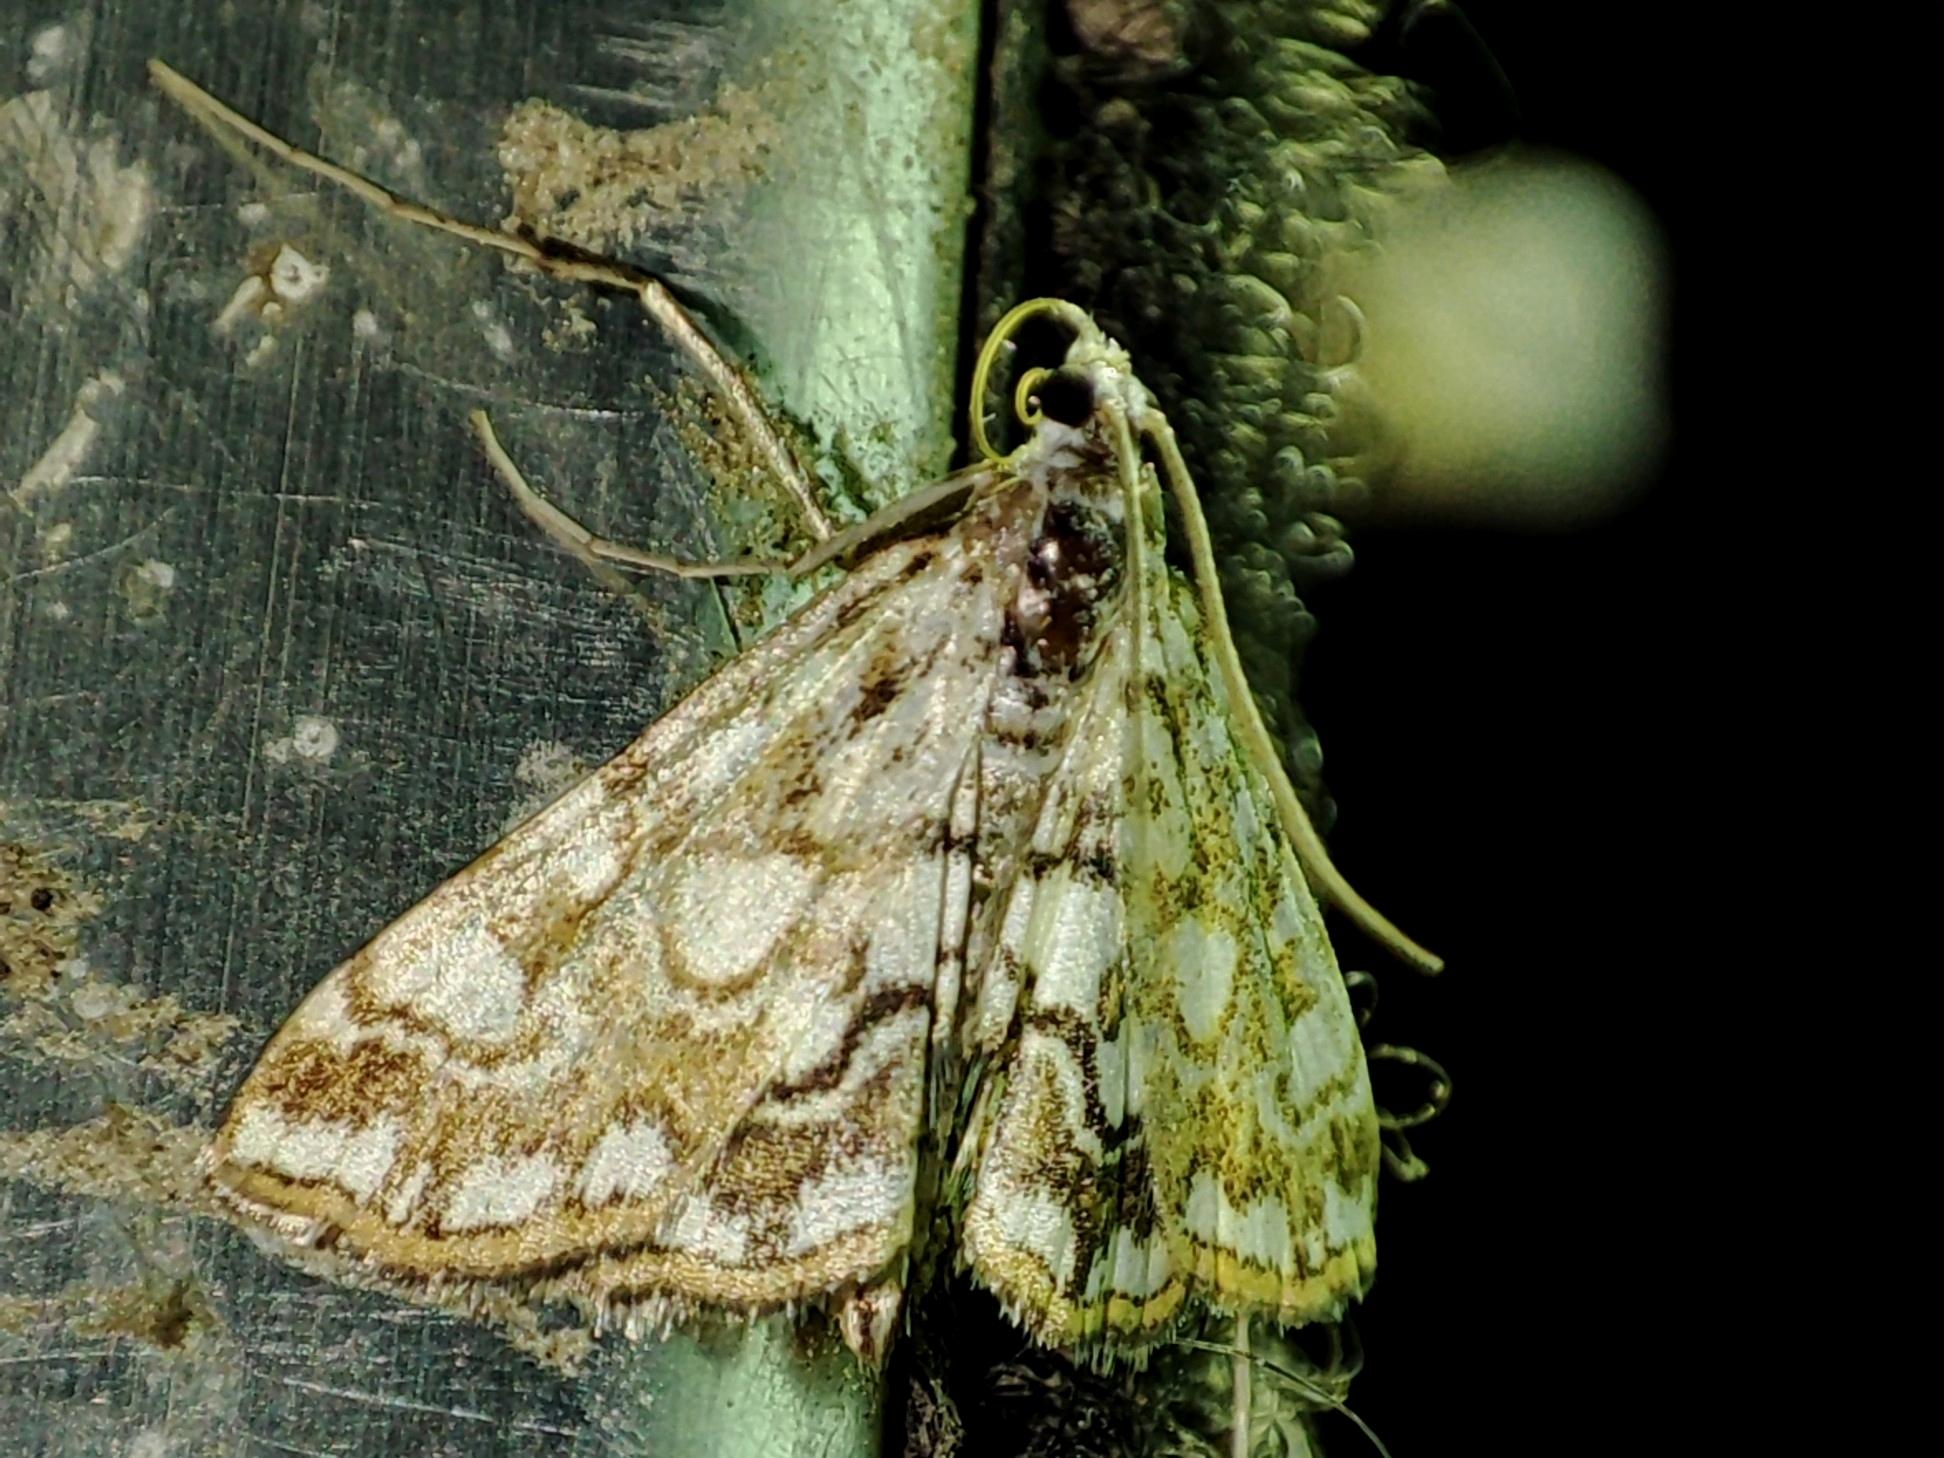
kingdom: Animalia
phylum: Arthropoda
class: Insecta
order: Lepidoptera
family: Crambidae
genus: Elophila
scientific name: Elophila nymphaeata
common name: Brown china-mark
